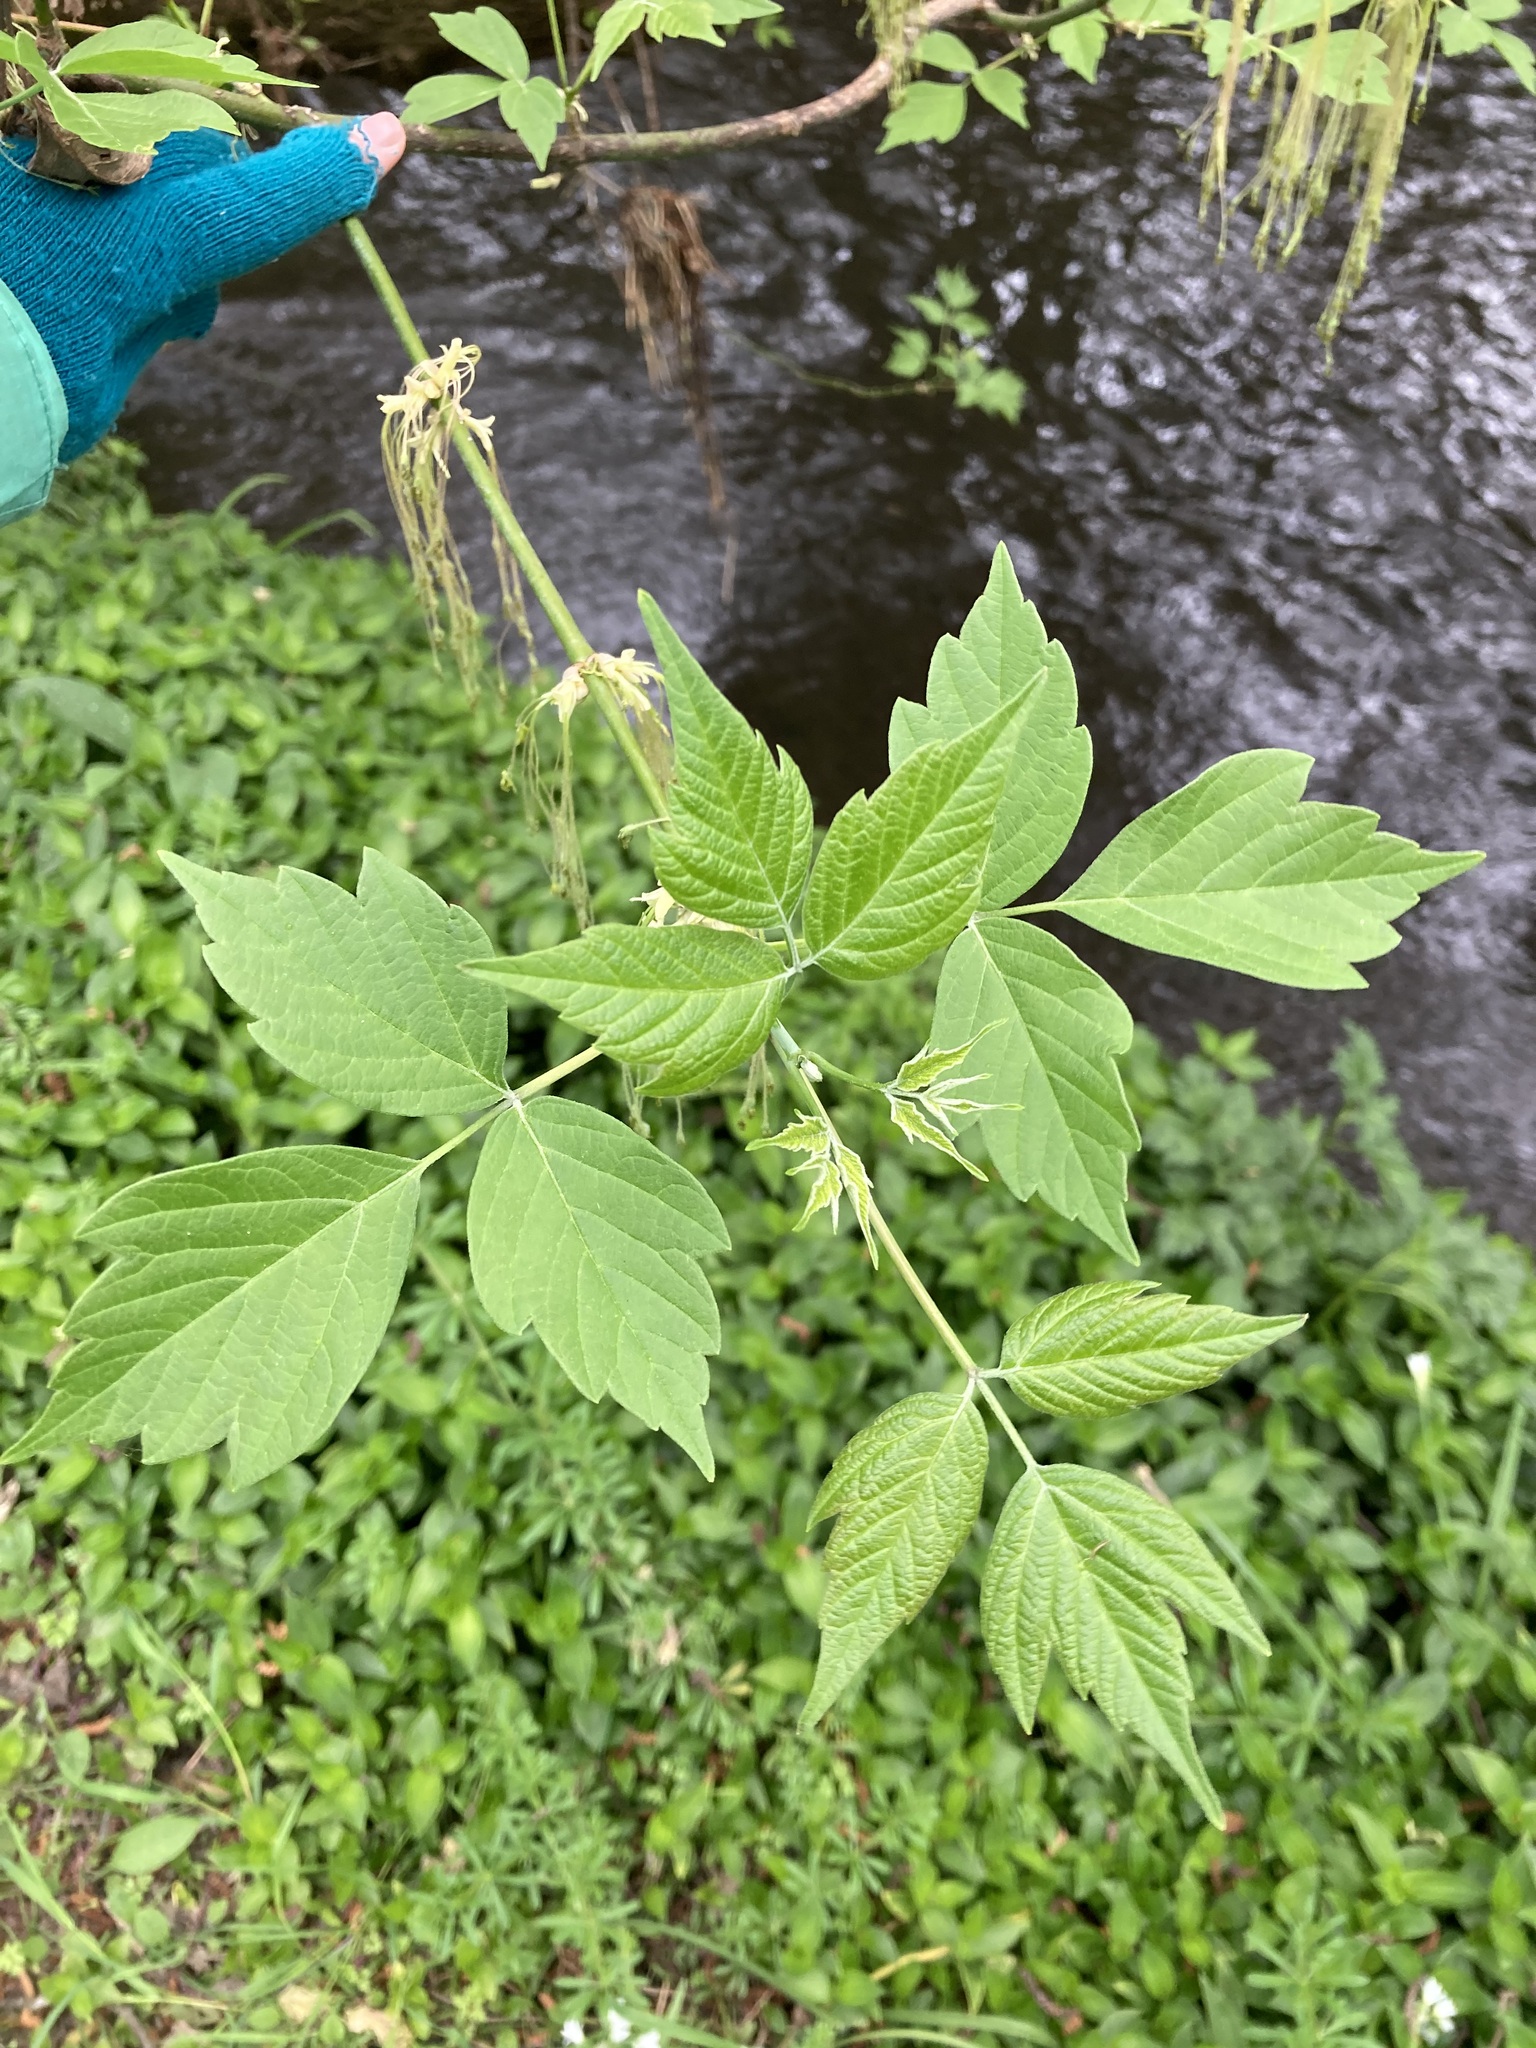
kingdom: Plantae
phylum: Tracheophyta
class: Magnoliopsida
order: Sapindales
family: Sapindaceae
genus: Acer
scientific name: Acer negundo
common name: Ashleaf maple
